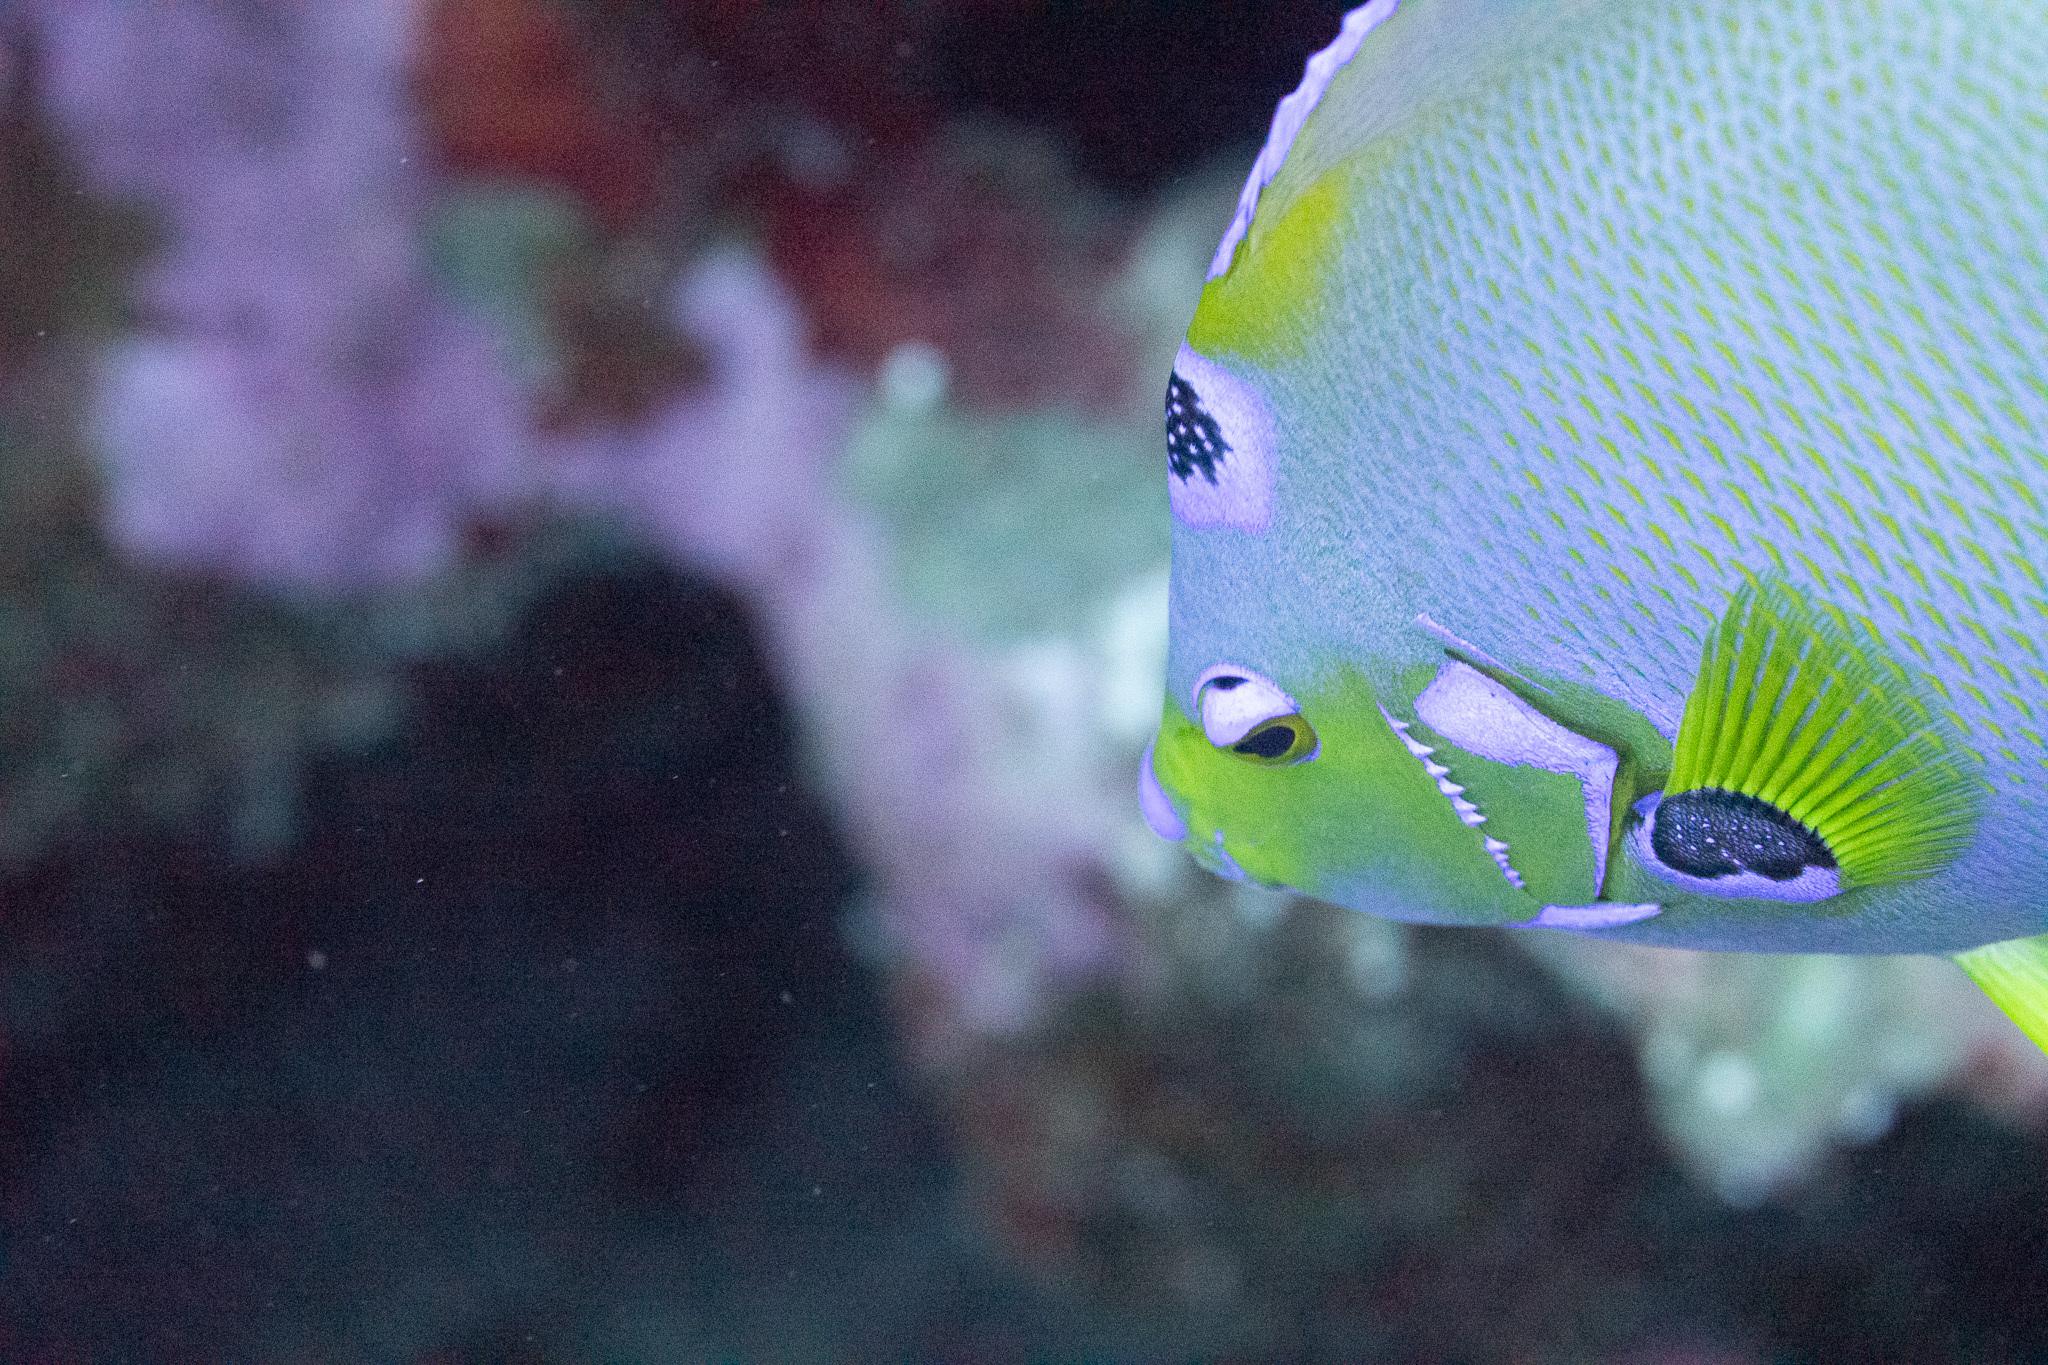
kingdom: Animalia
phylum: Chordata
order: Perciformes
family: Pomacanthidae
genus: Holacanthus
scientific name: Holacanthus ciliaris
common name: Queen angelfish
